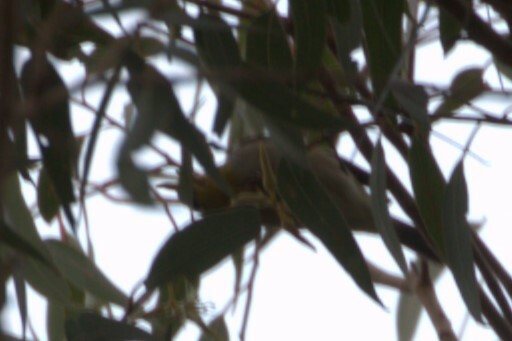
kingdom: Animalia
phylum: Chordata
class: Aves
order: Passeriformes
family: Zosteropidae
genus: Zosterops
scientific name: Zosterops lateralis
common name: Silvereye
